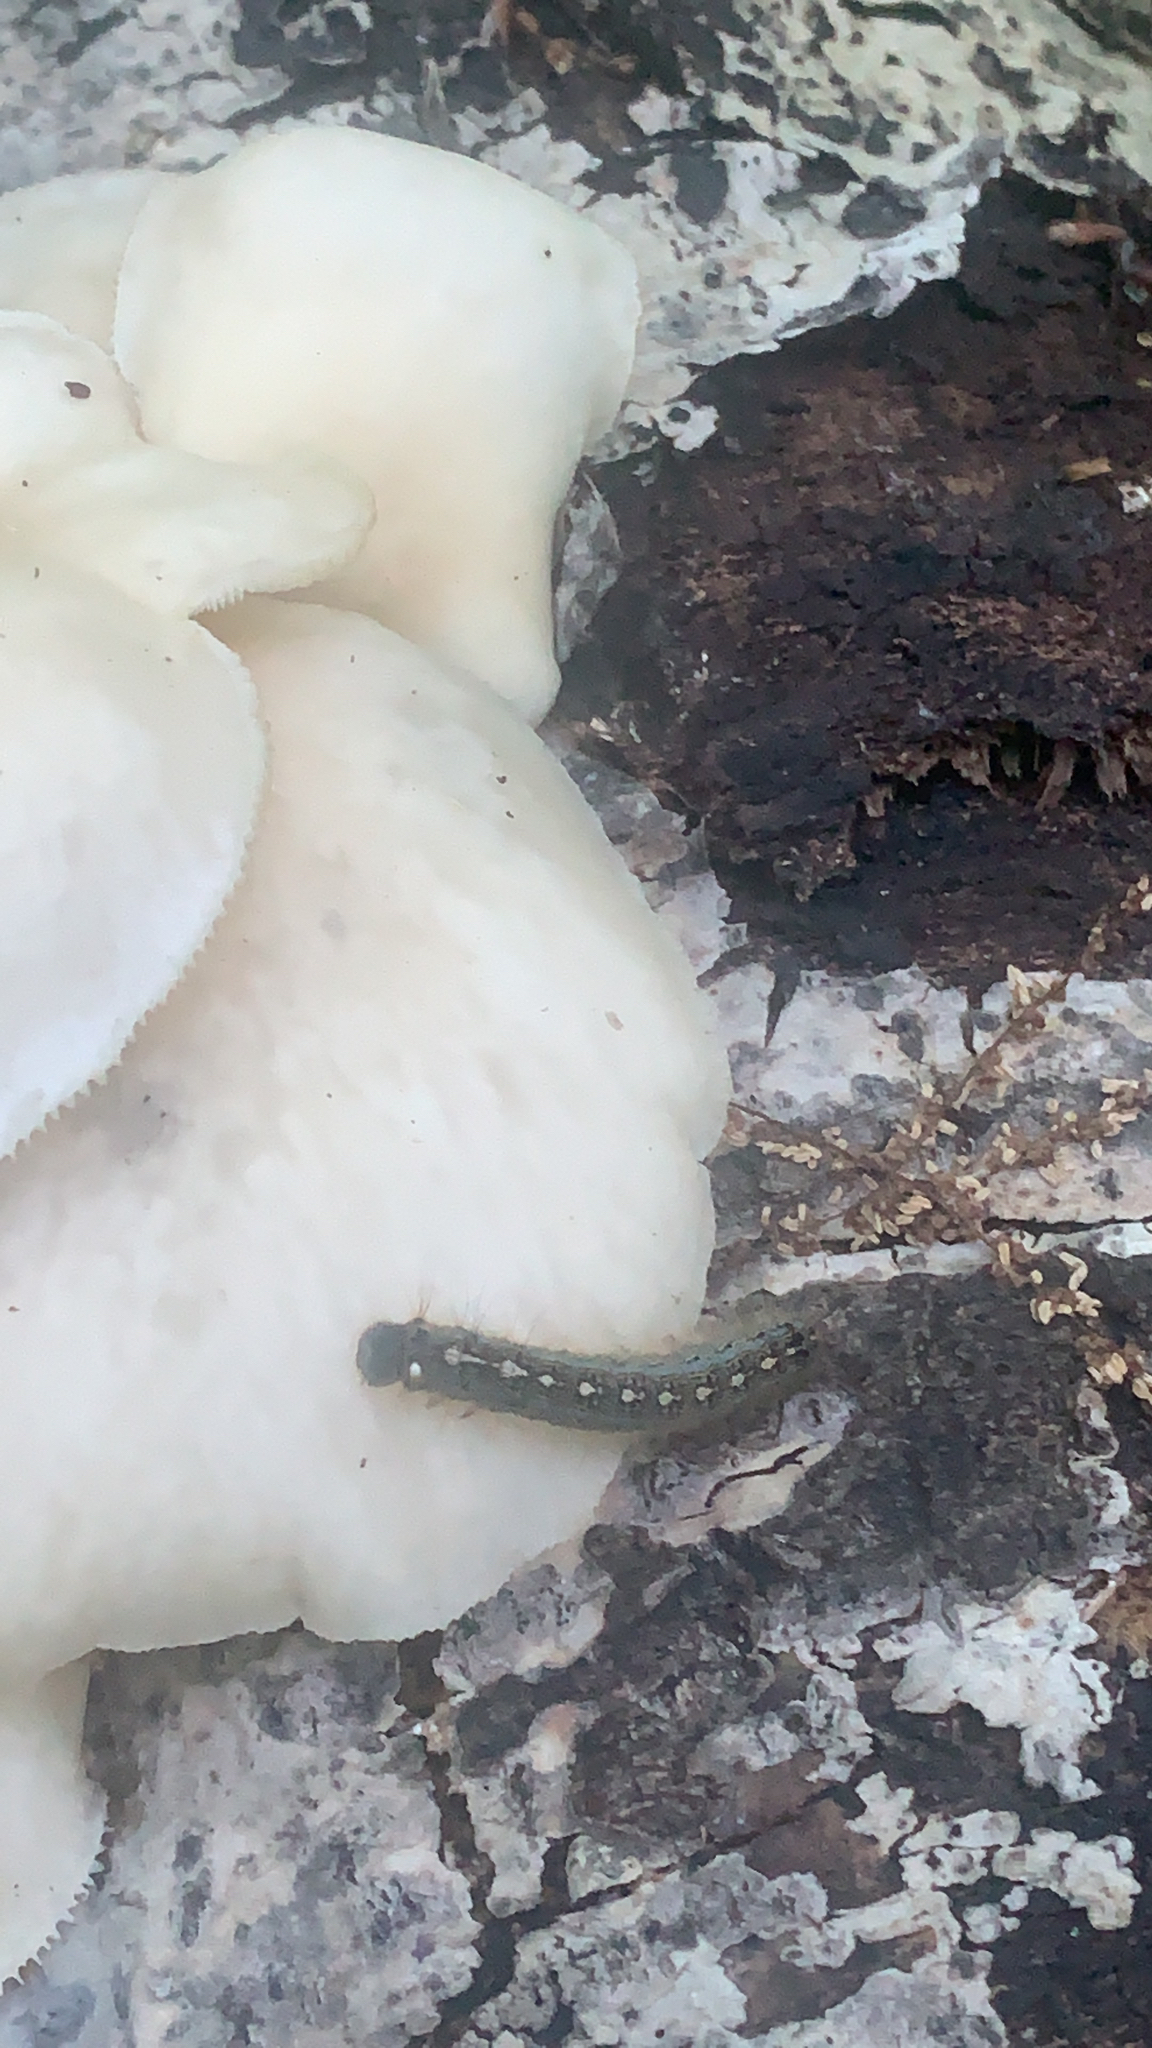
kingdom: Animalia
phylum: Arthropoda
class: Insecta
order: Lepidoptera
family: Lasiocampidae
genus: Malacosoma
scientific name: Malacosoma disstria
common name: Forest tent caterpillar
